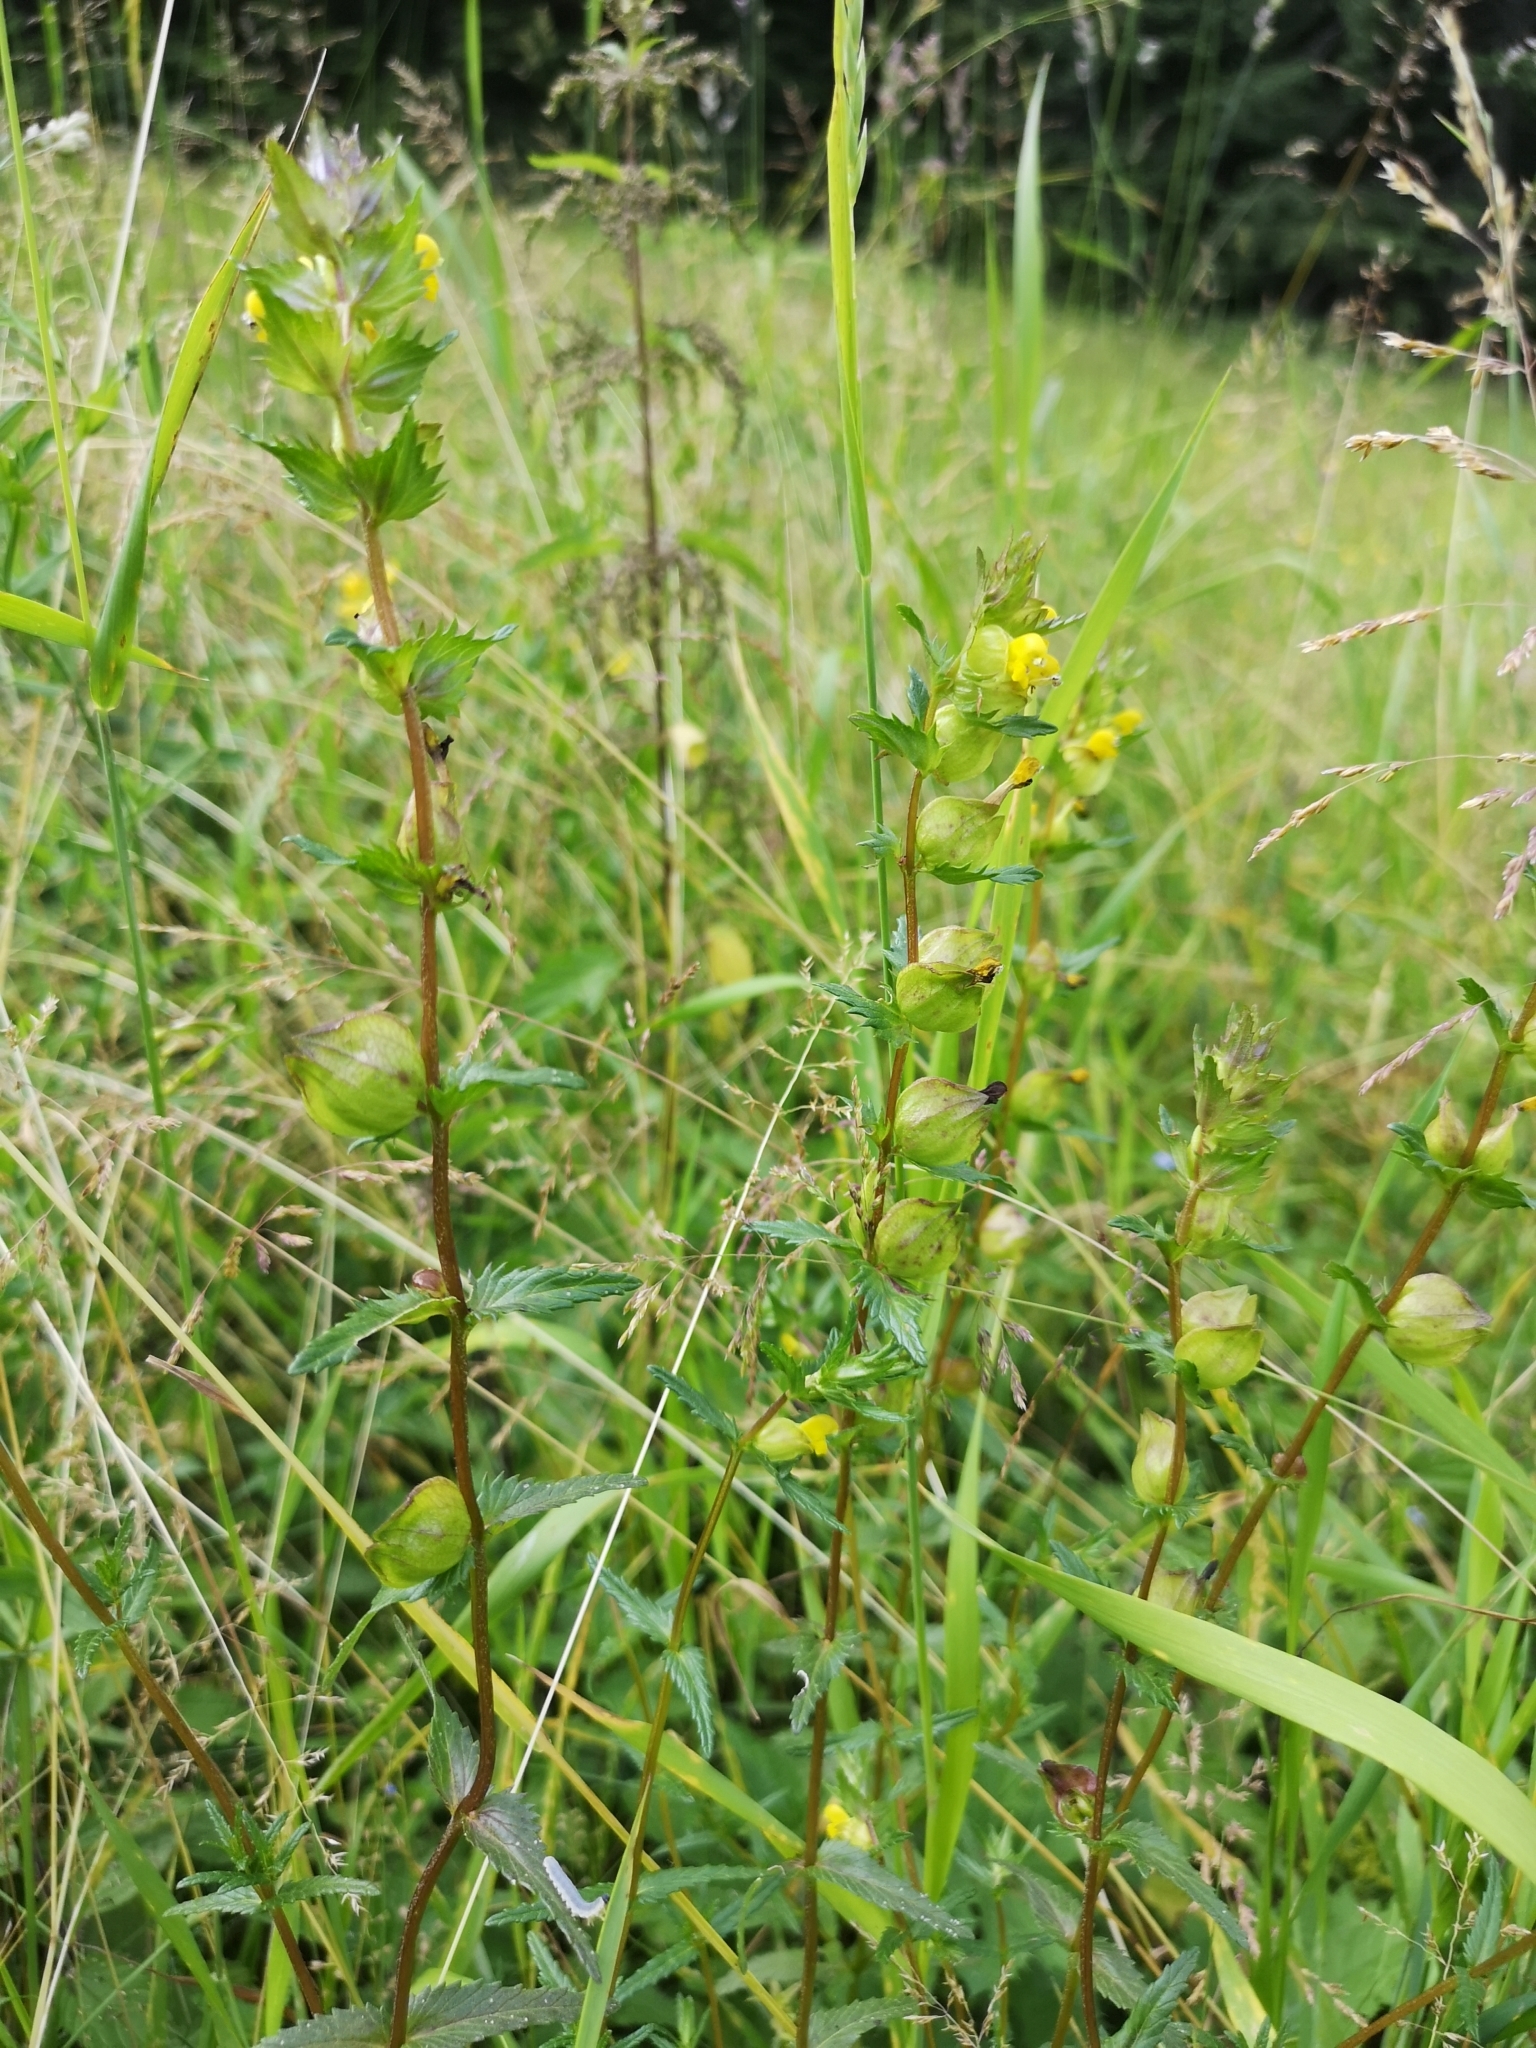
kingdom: Plantae
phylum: Tracheophyta
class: Magnoliopsida
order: Lamiales
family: Orobanchaceae
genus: Rhinanthus
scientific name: Rhinanthus minor
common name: Yellow-rattle
